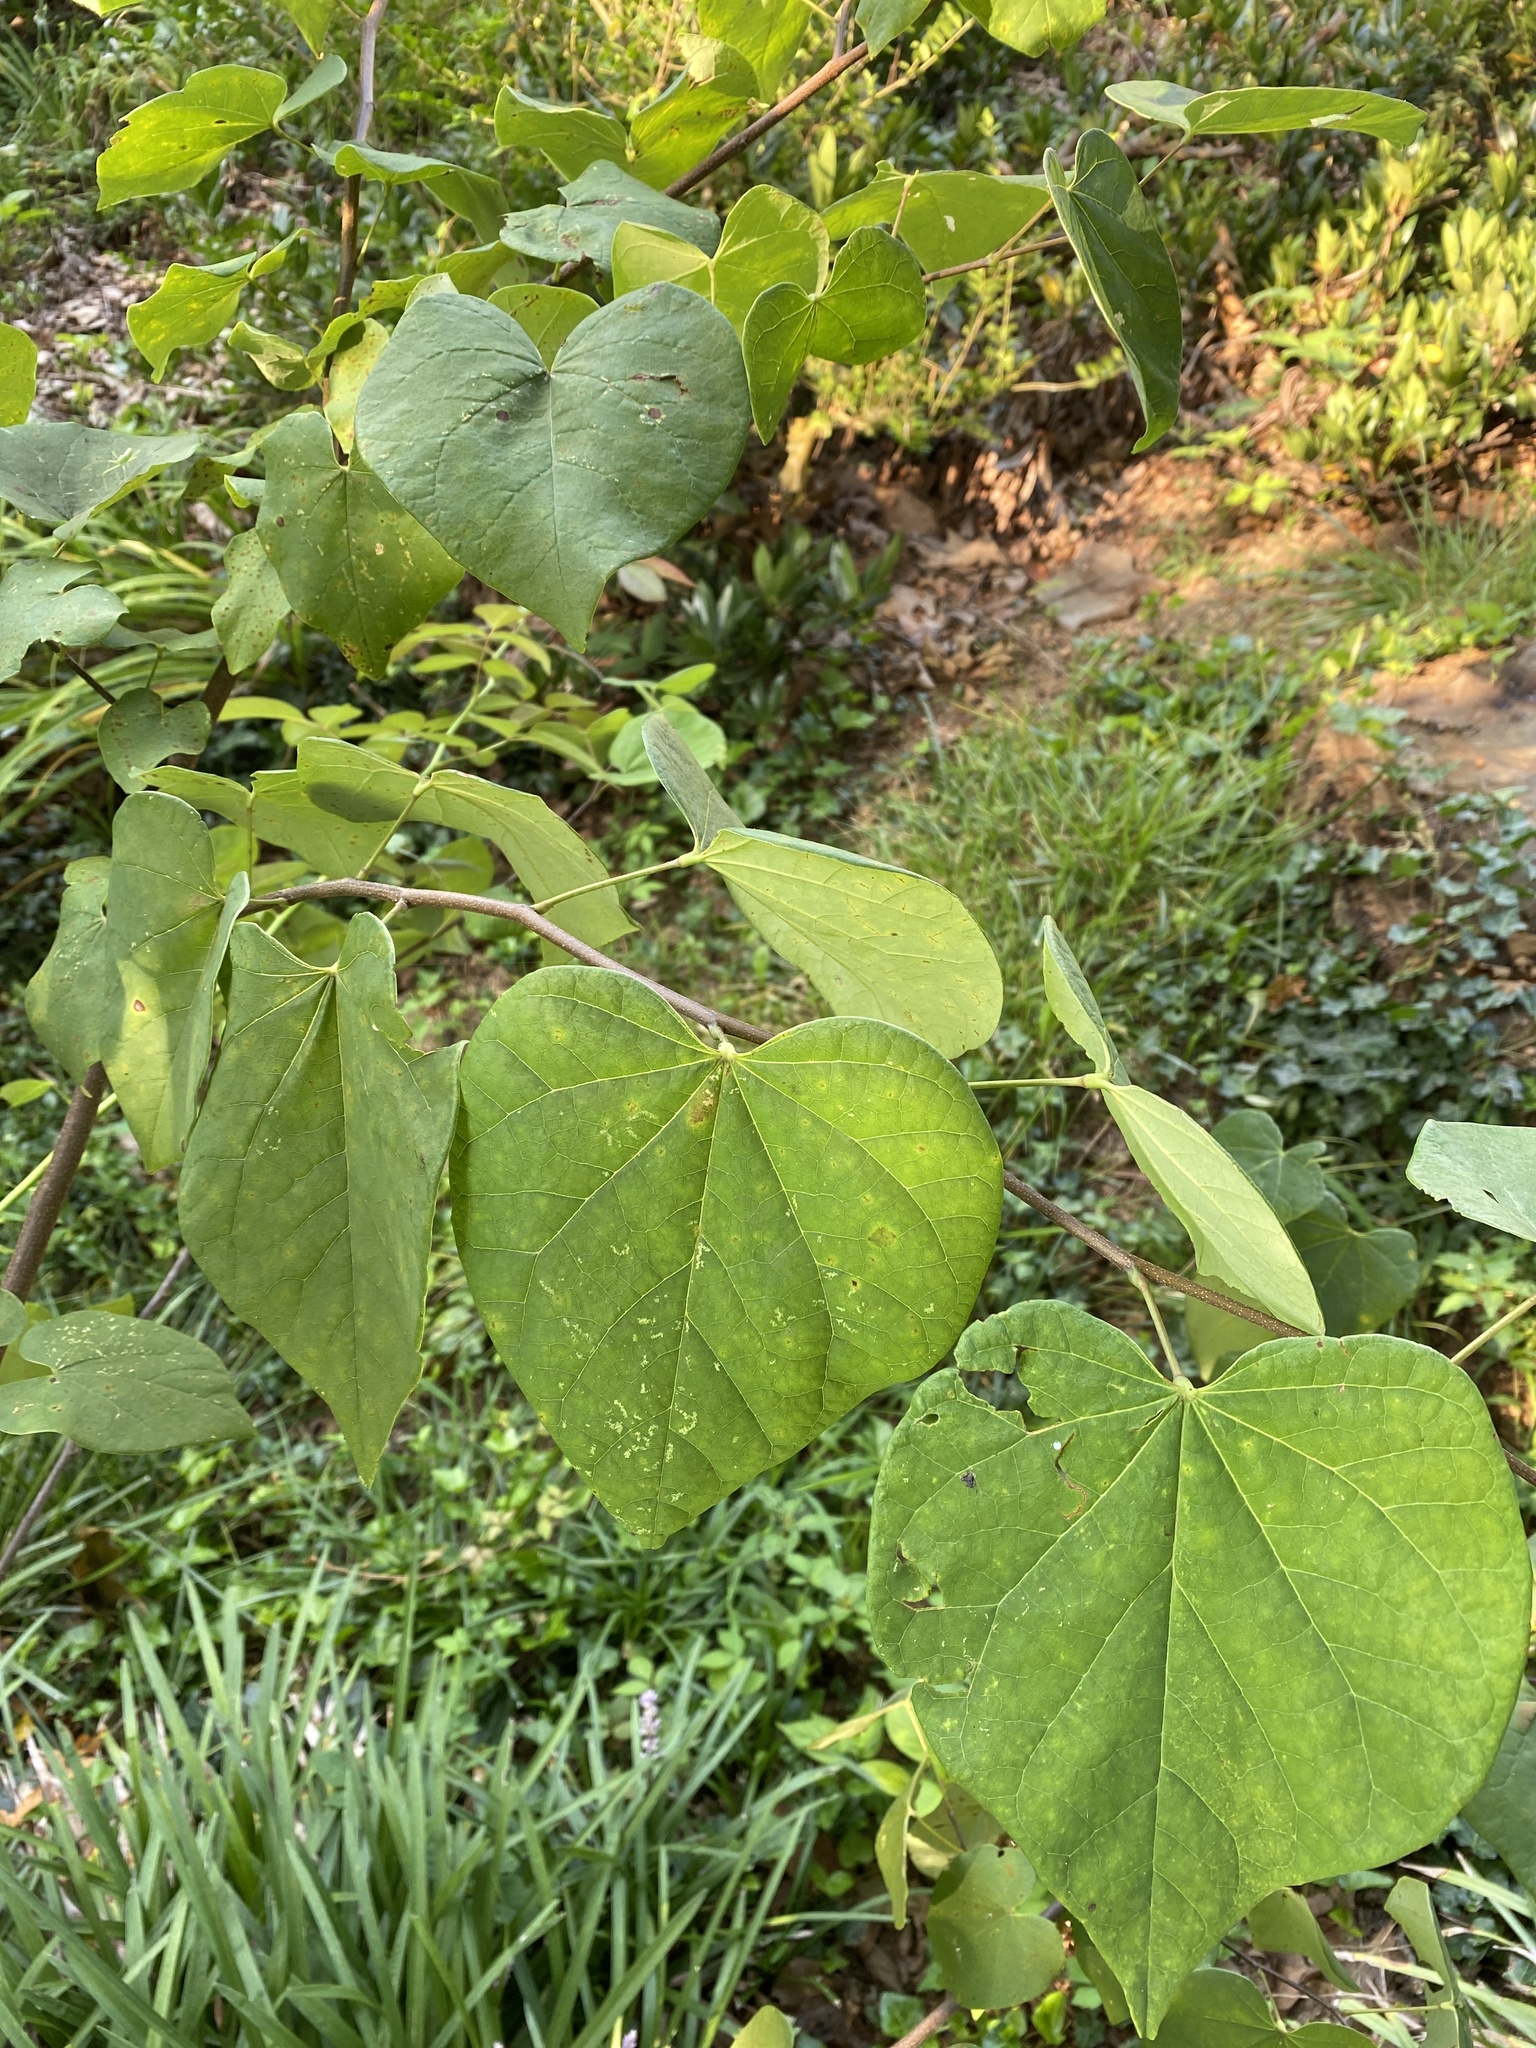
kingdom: Plantae
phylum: Tracheophyta
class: Magnoliopsida
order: Fabales
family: Fabaceae
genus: Cercis
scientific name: Cercis canadensis
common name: Eastern redbud
